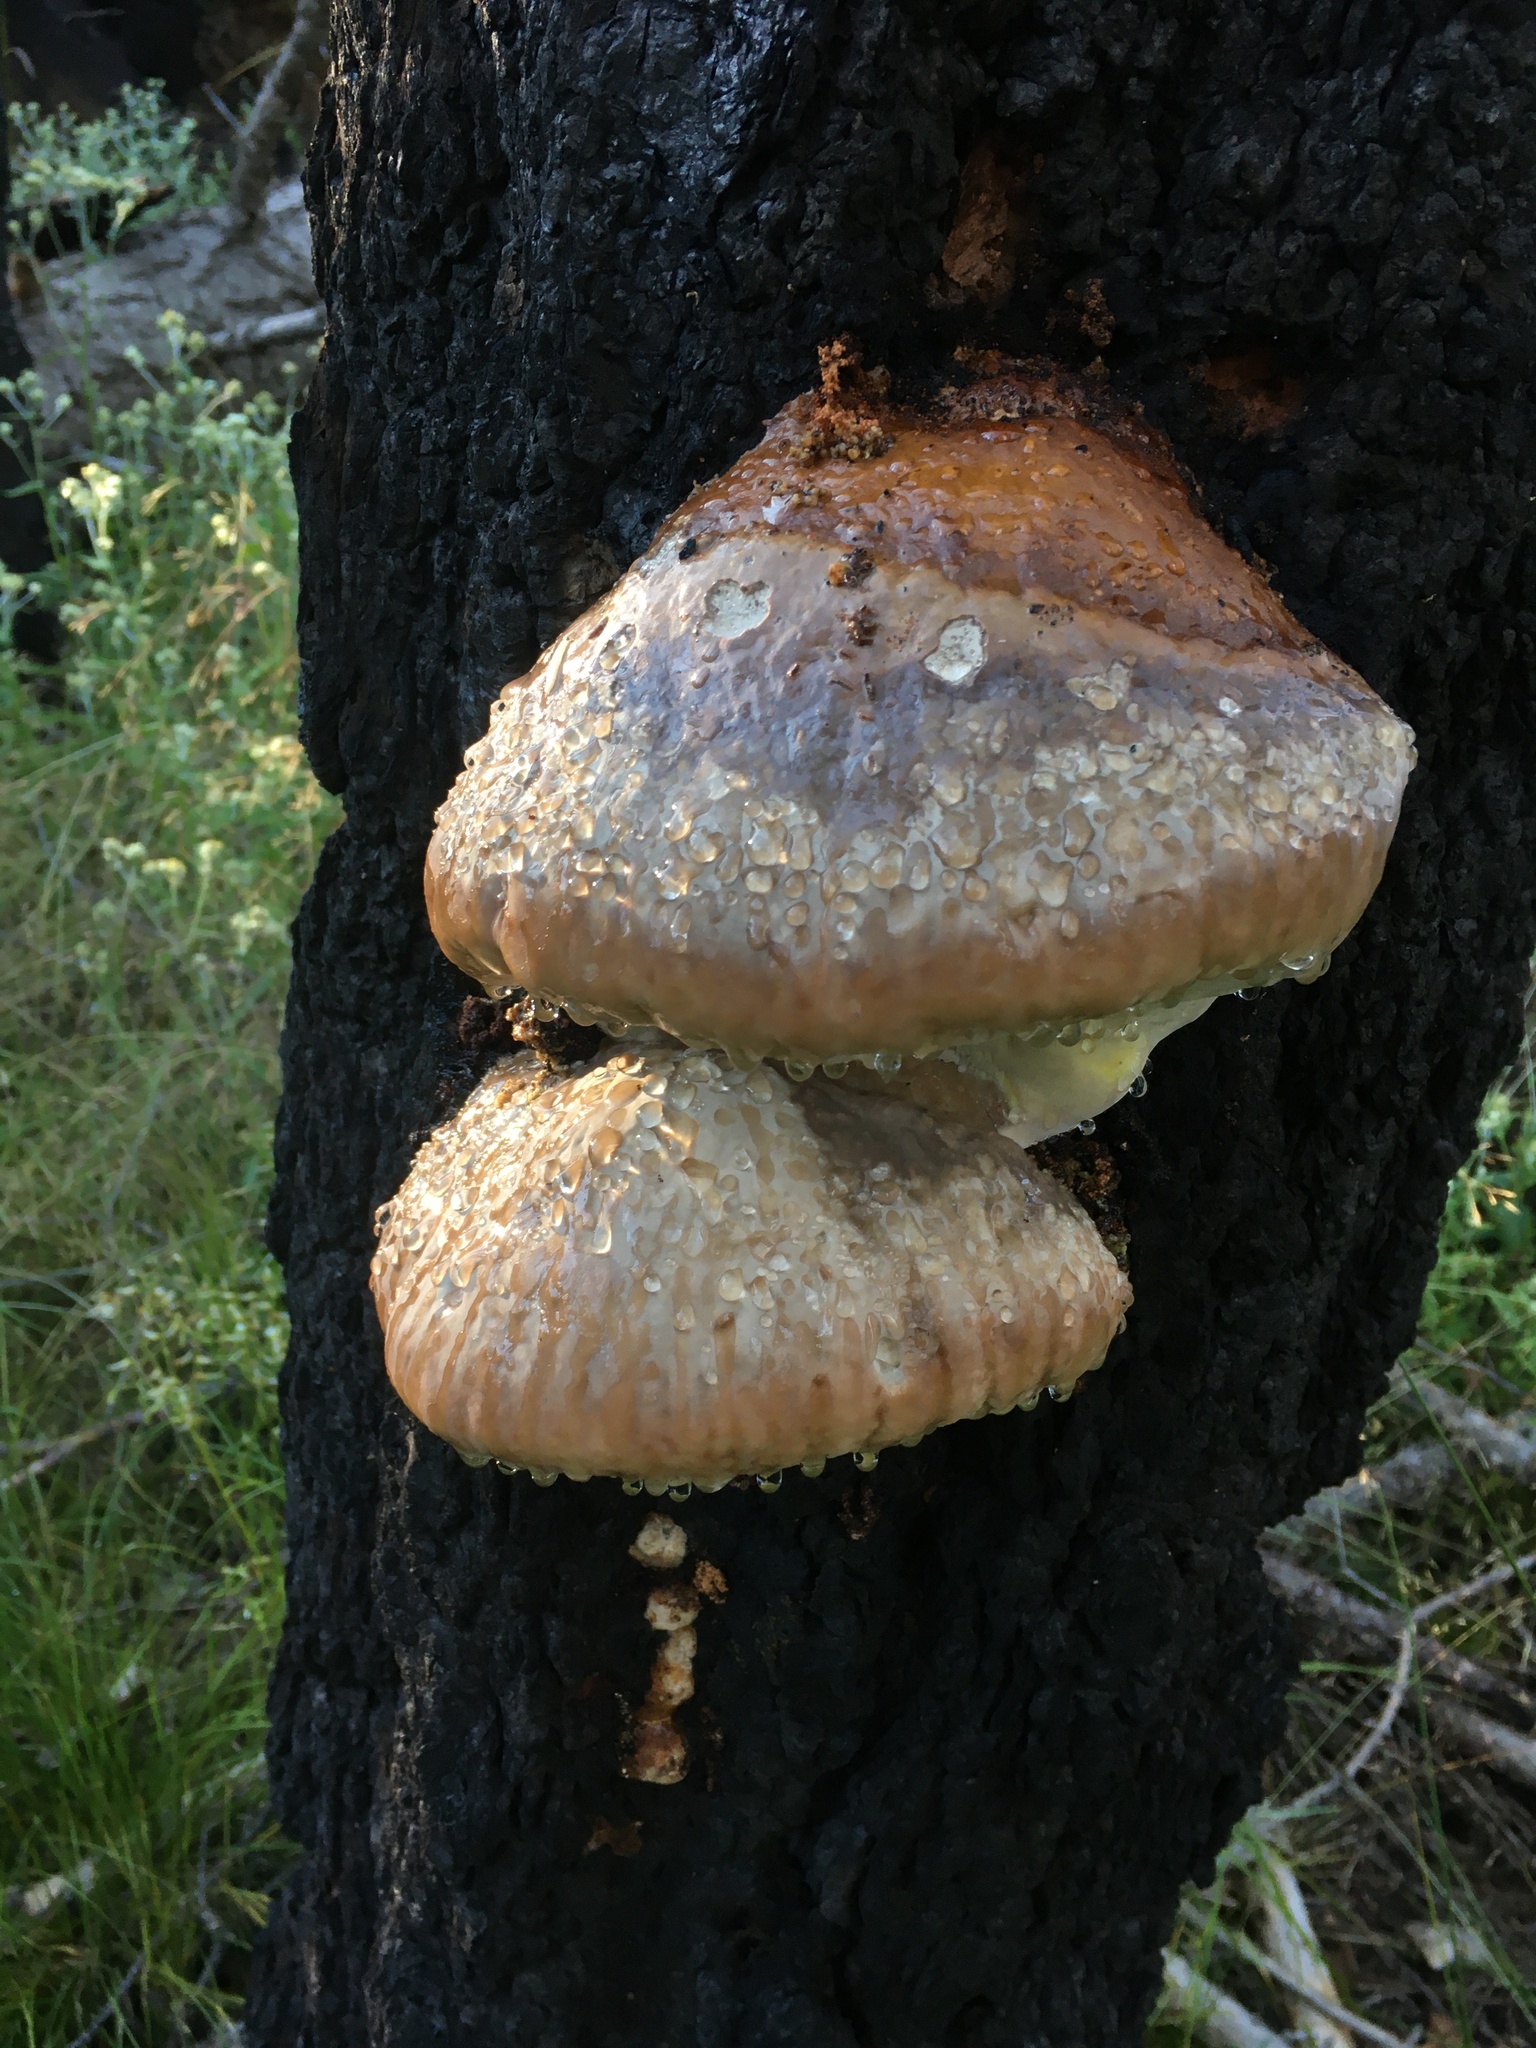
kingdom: Fungi
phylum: Basidiomycota
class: Agaricomycetes
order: Polyporales
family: Fomitopsidaceae
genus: Fomitopsis
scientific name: Fomitopsis schrenkii
